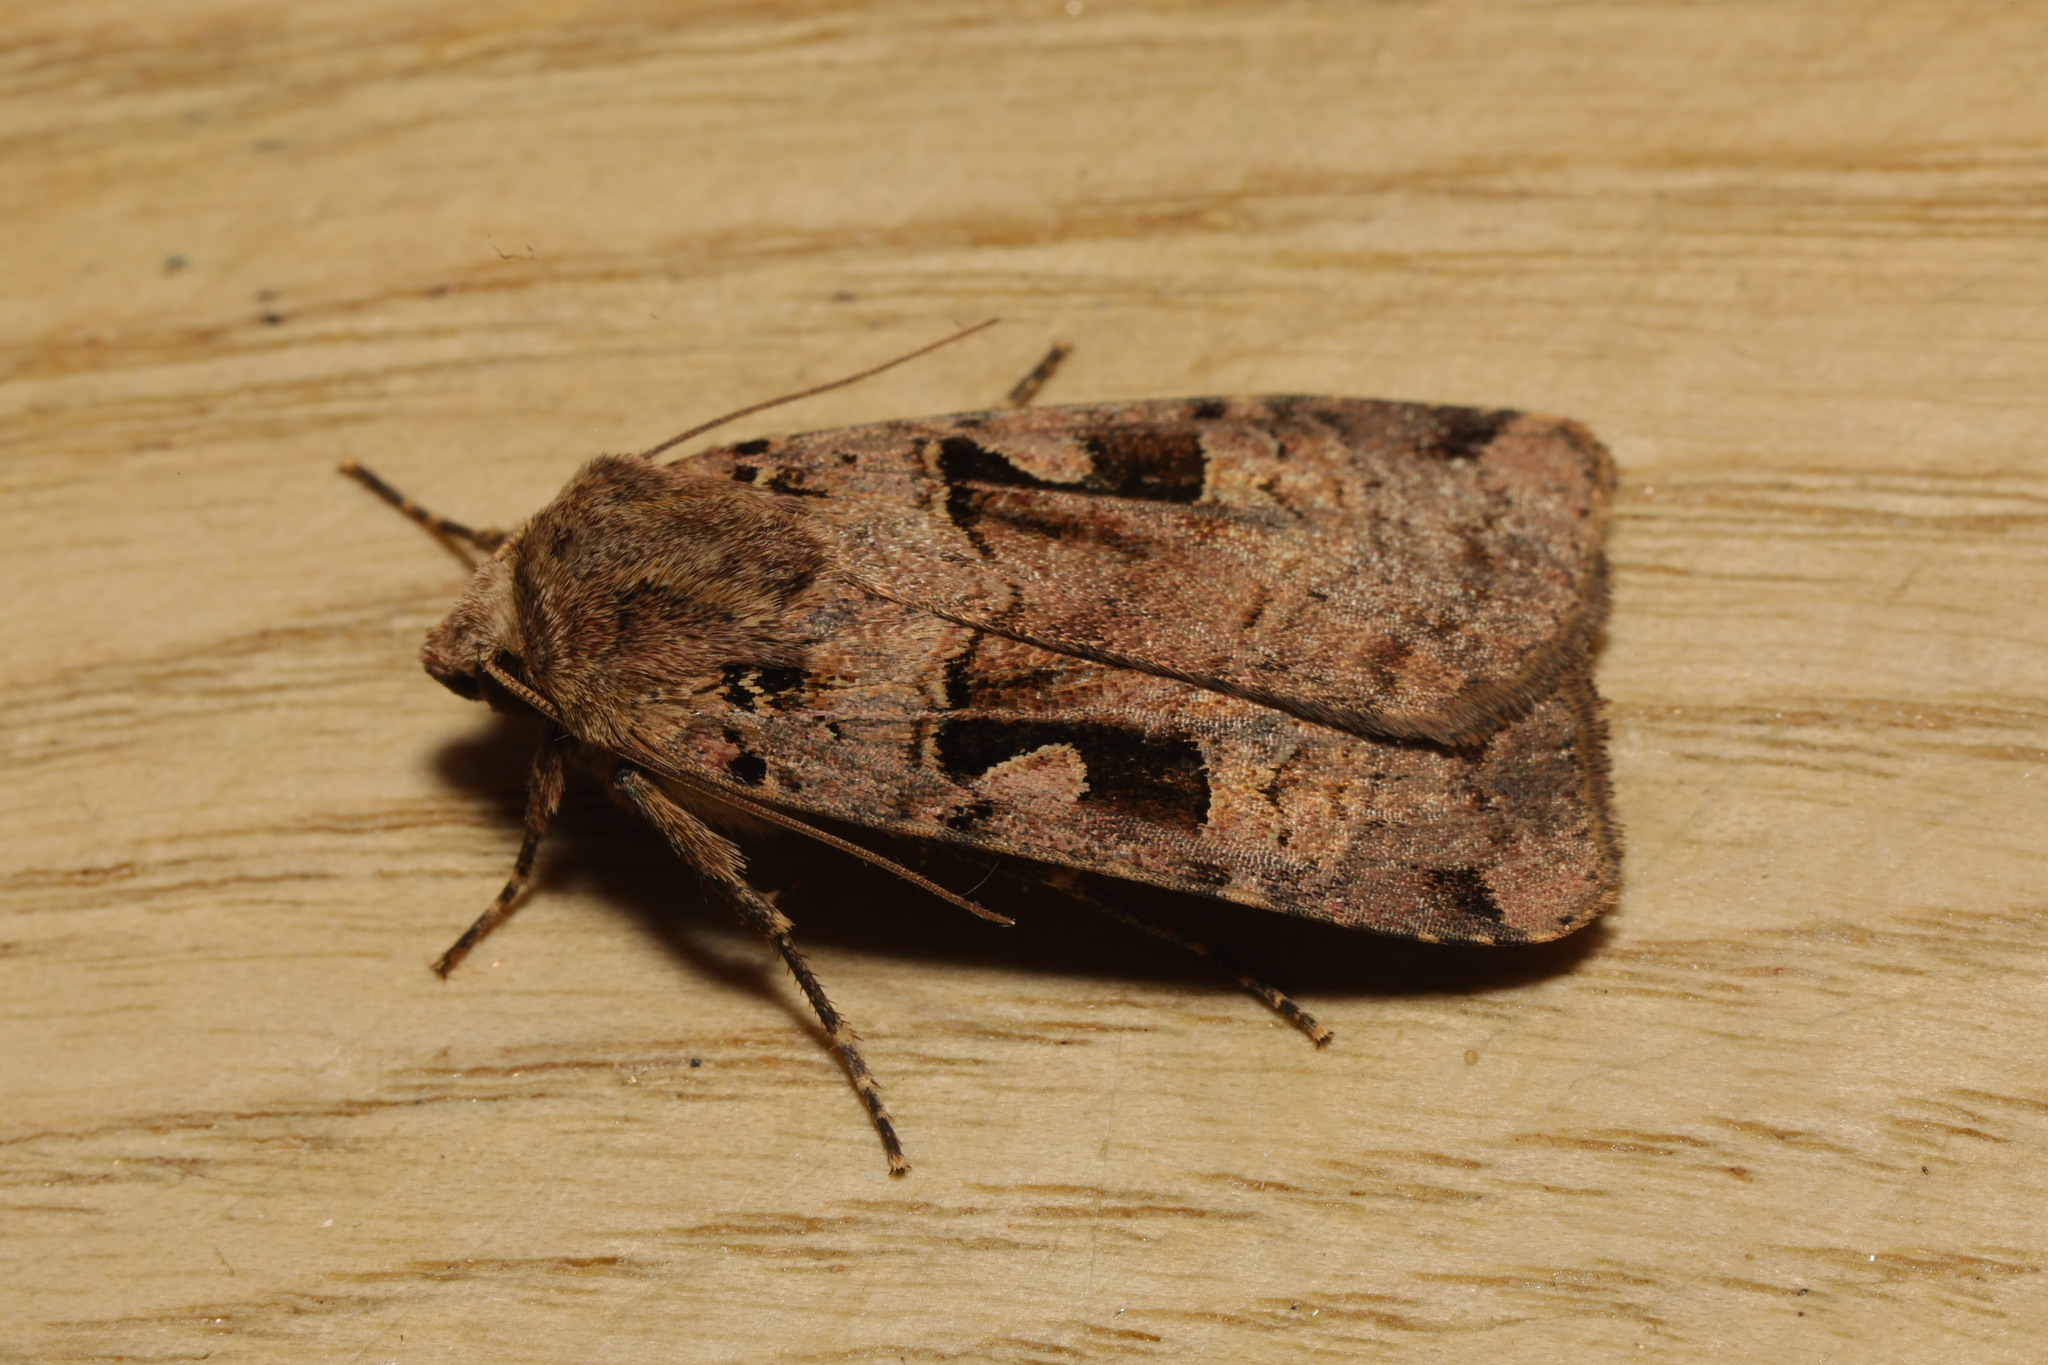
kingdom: Animalia
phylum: Arthropoda
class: Insecta
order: Lepidoptera
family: Noctuidae
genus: Xestia
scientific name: Xestia triangulum
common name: Double square-spot
